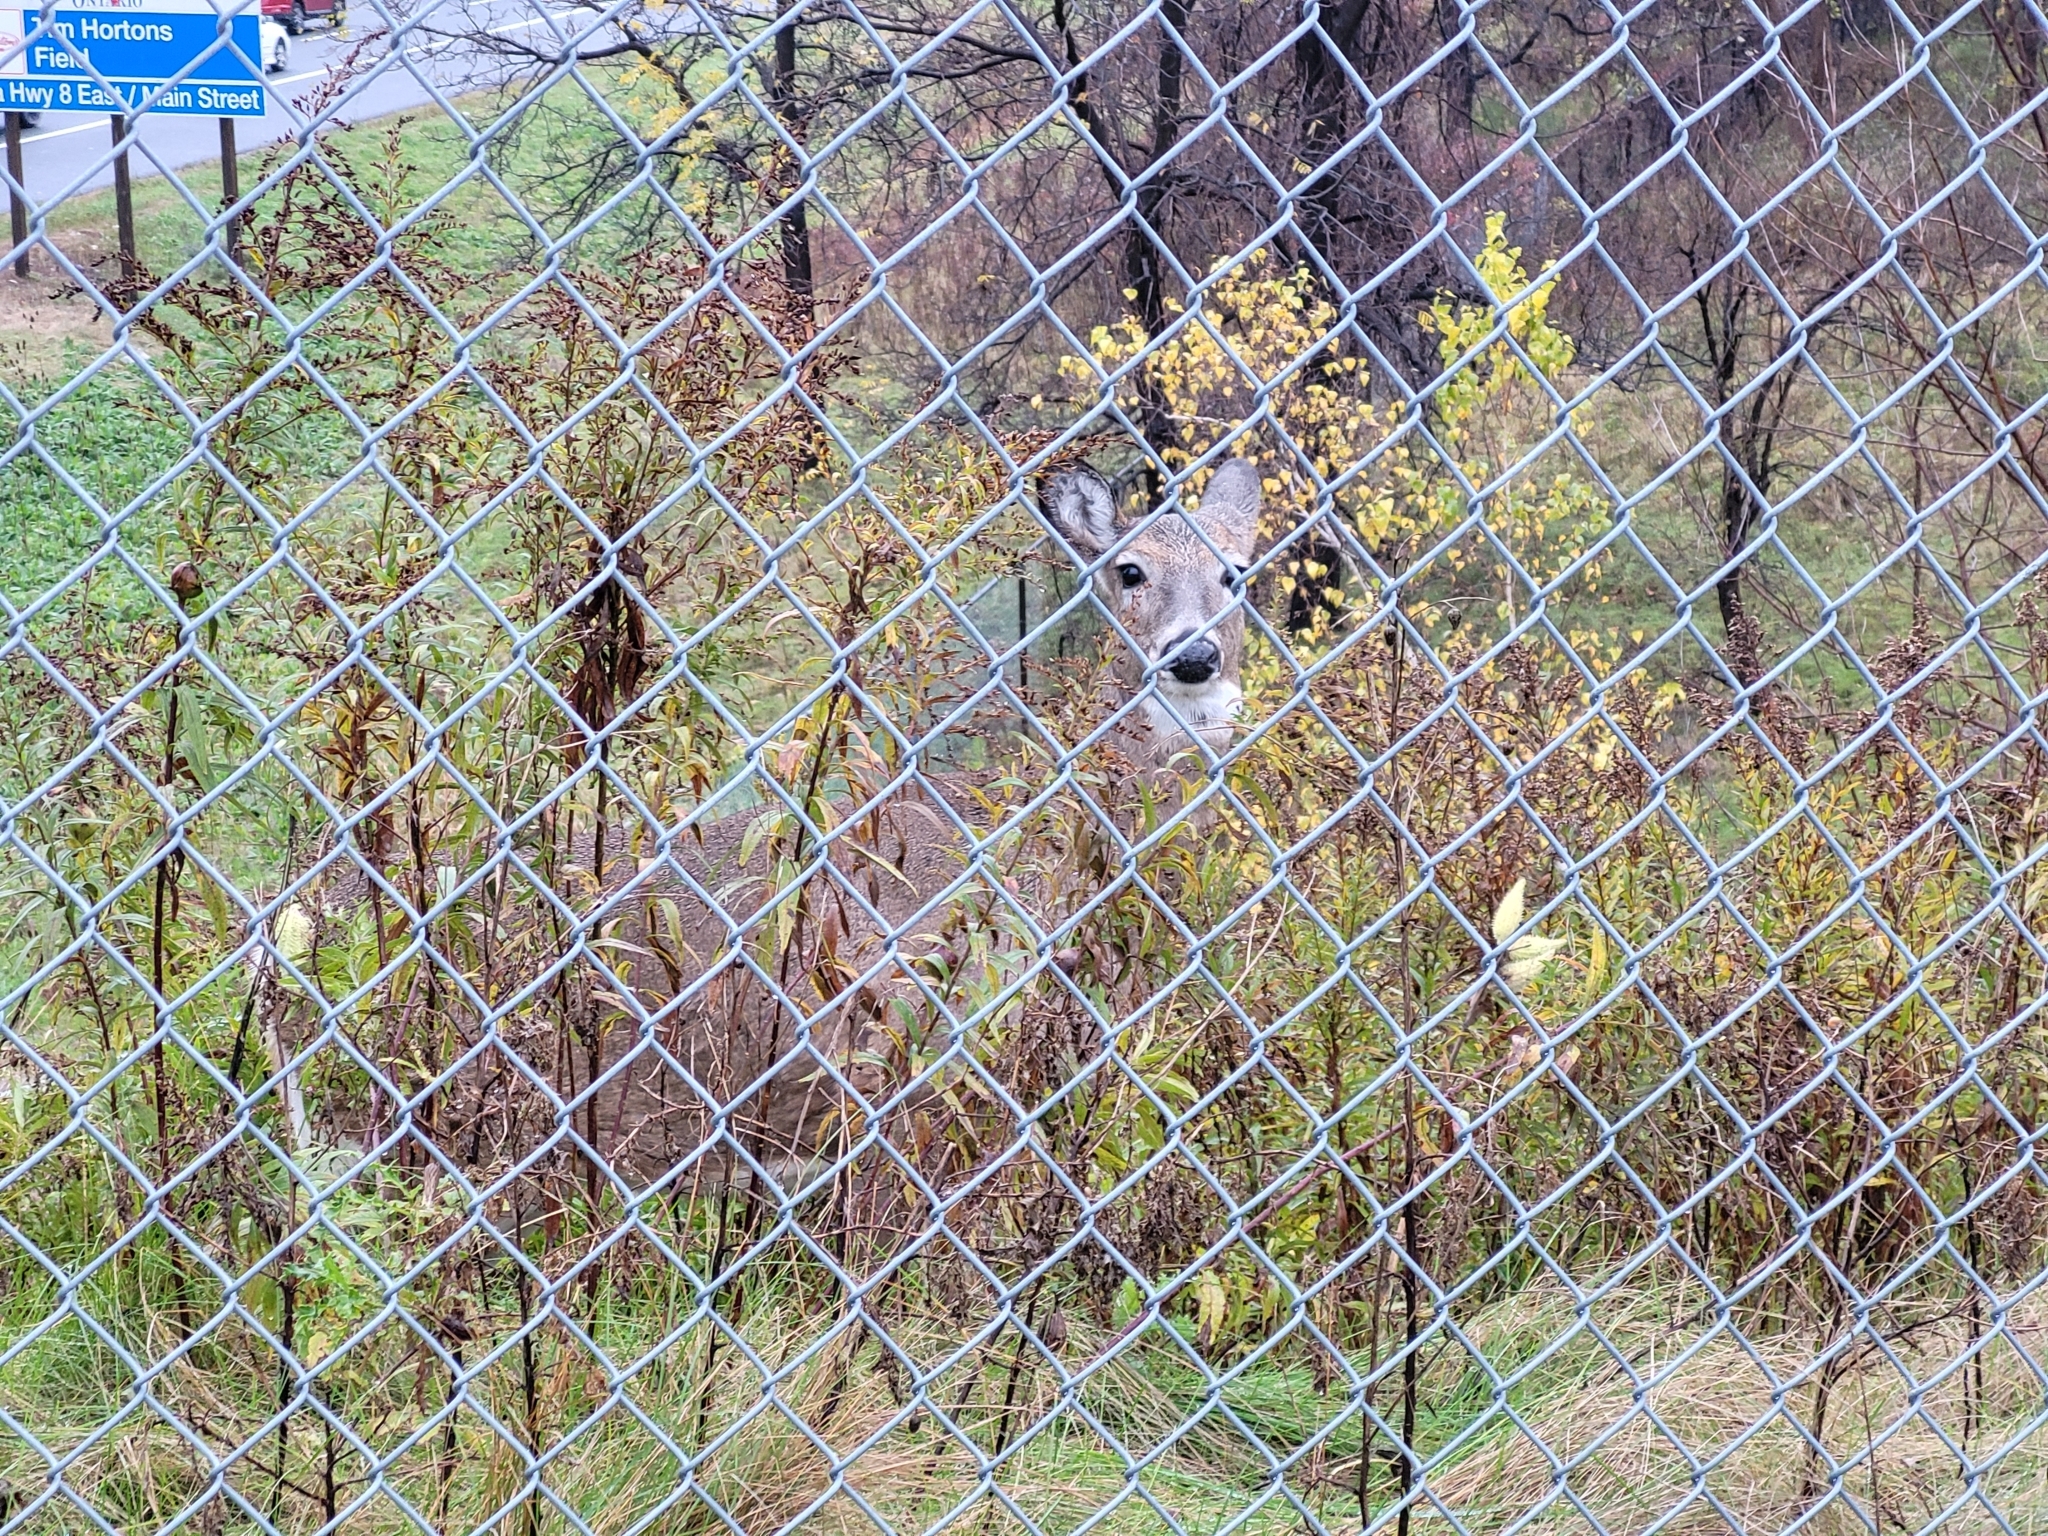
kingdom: Animalia
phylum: Chordata
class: Mammalia
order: Artiodactyla
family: Cervidae
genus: Odocoileus
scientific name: Odocoileus virginianus
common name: White-tailed deer
